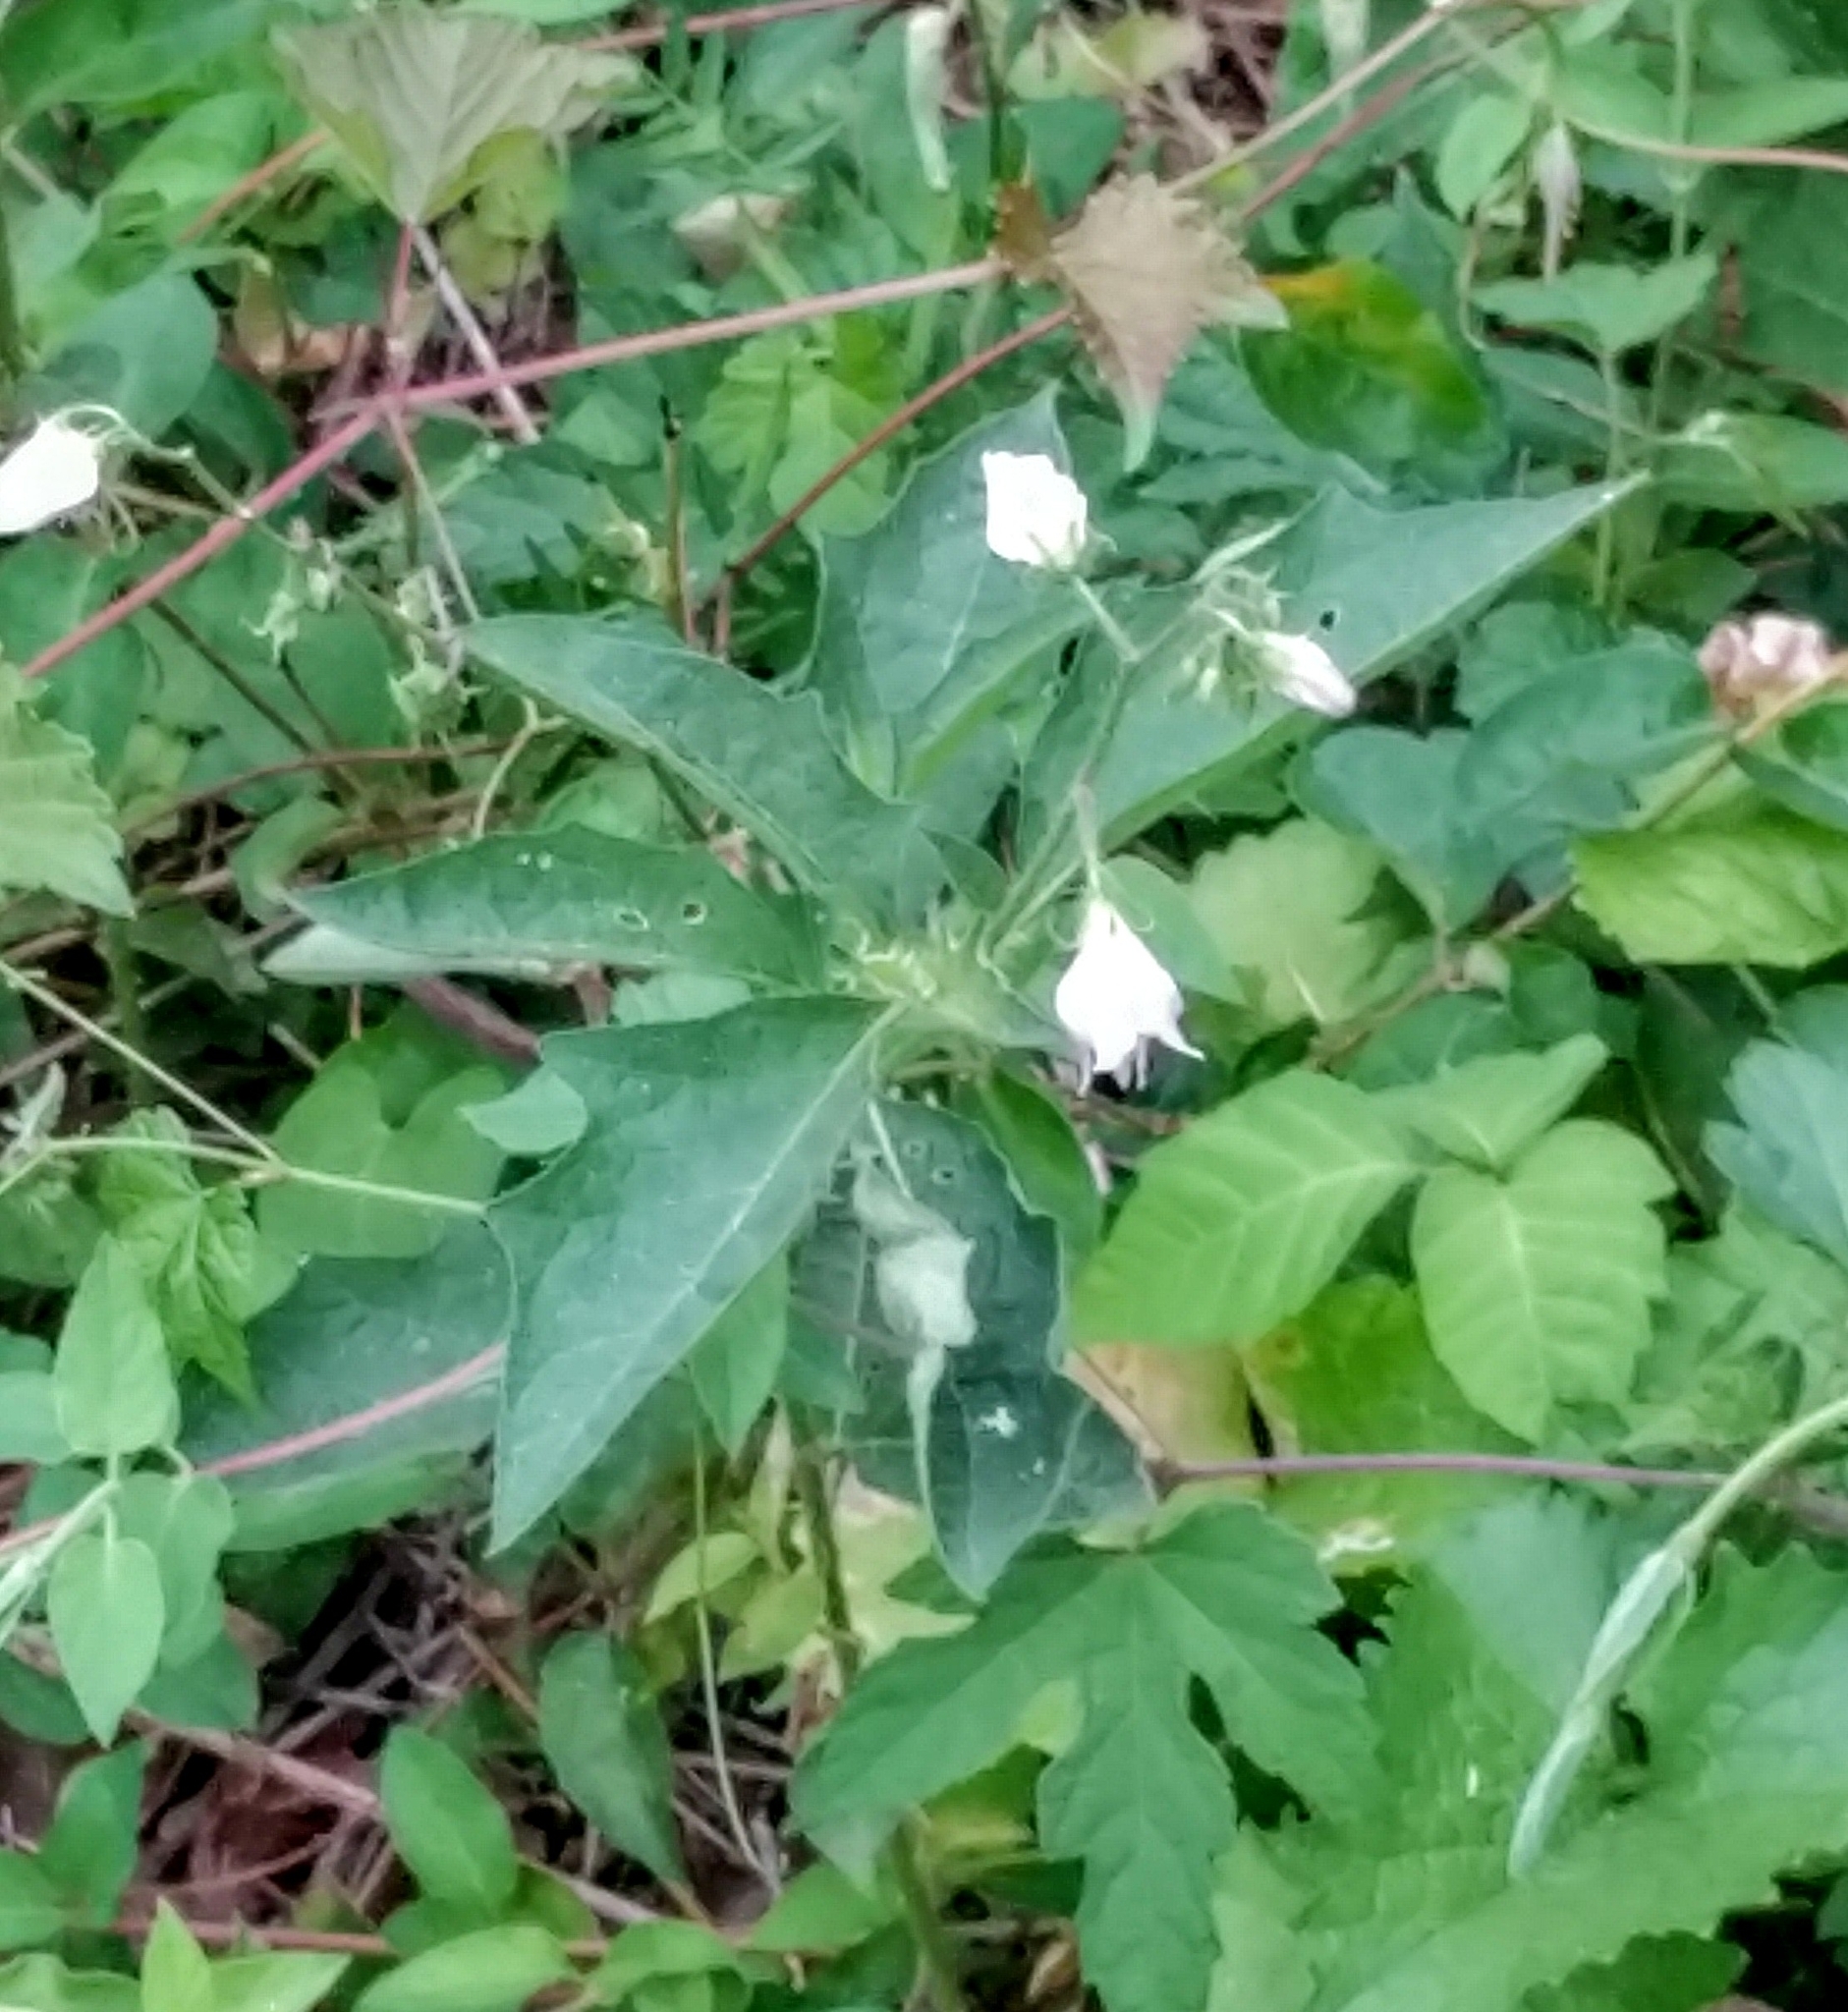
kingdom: Plantae
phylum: Tracheophyta
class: Magnoliopsida
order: Solanales
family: Solanaceae
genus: Solanum
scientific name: Solanum carolinense
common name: Horse-nettle
